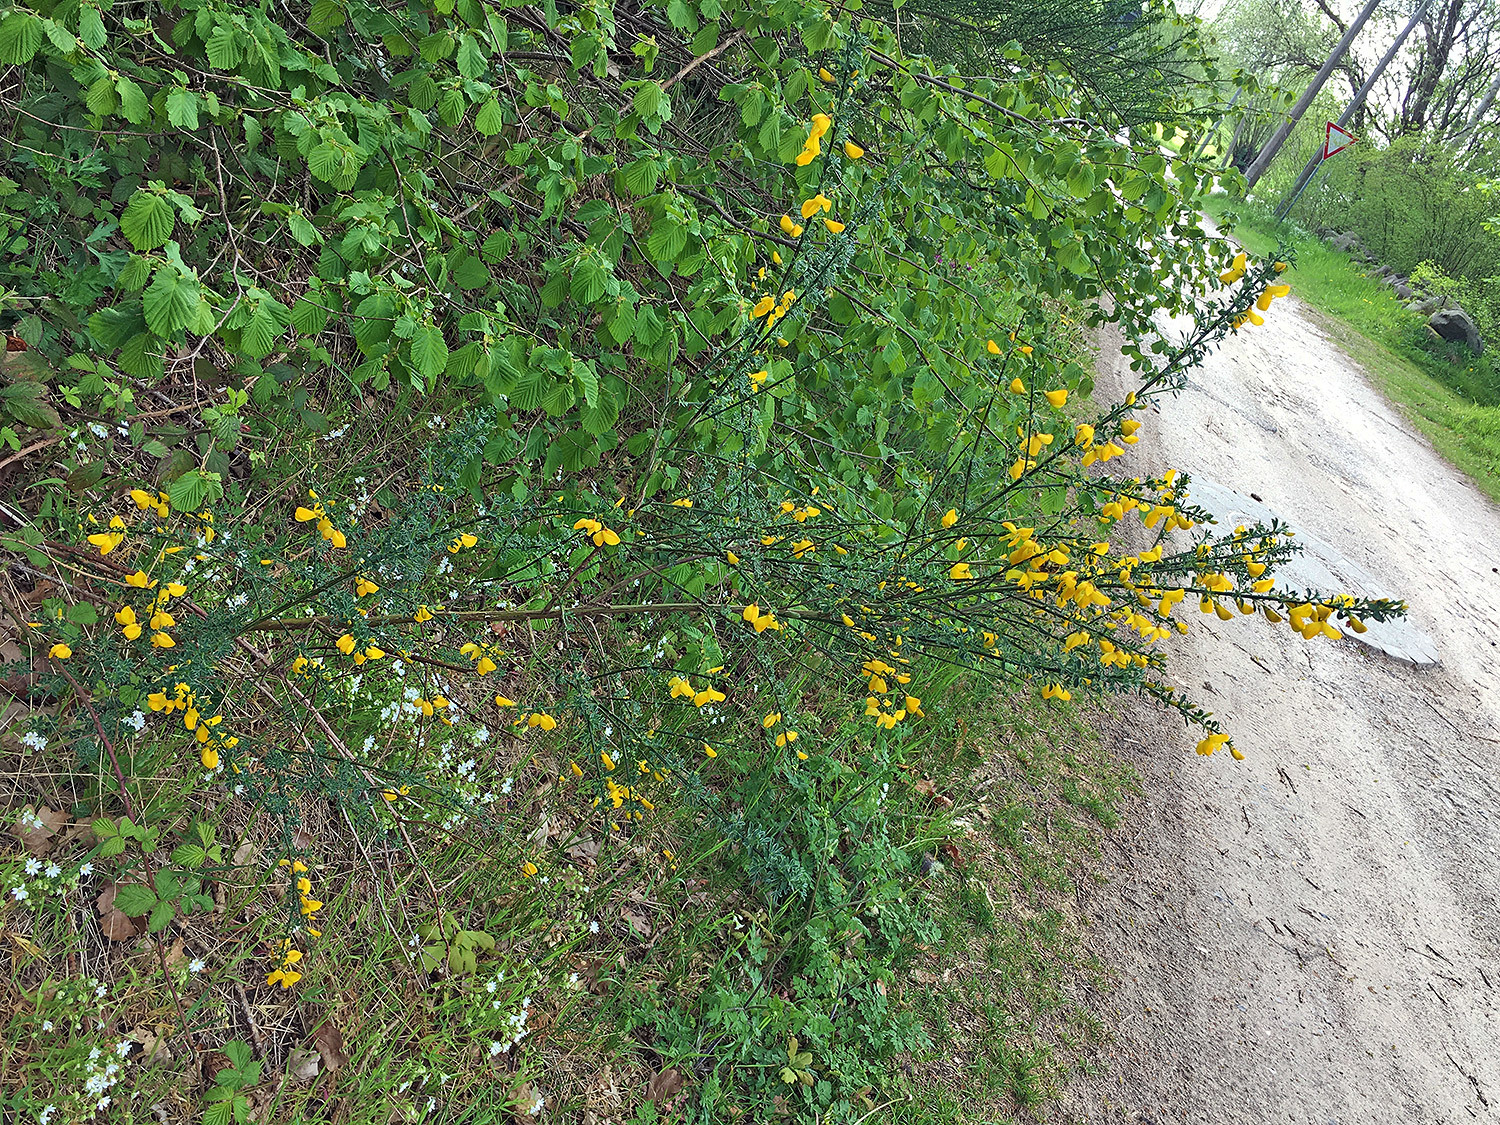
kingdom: Plantae
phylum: Tracheophyta
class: Magnoliopsida
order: Fabales
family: Fabaceae
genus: Cytisus
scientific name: Cytisus scoparius
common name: Scotch broom
